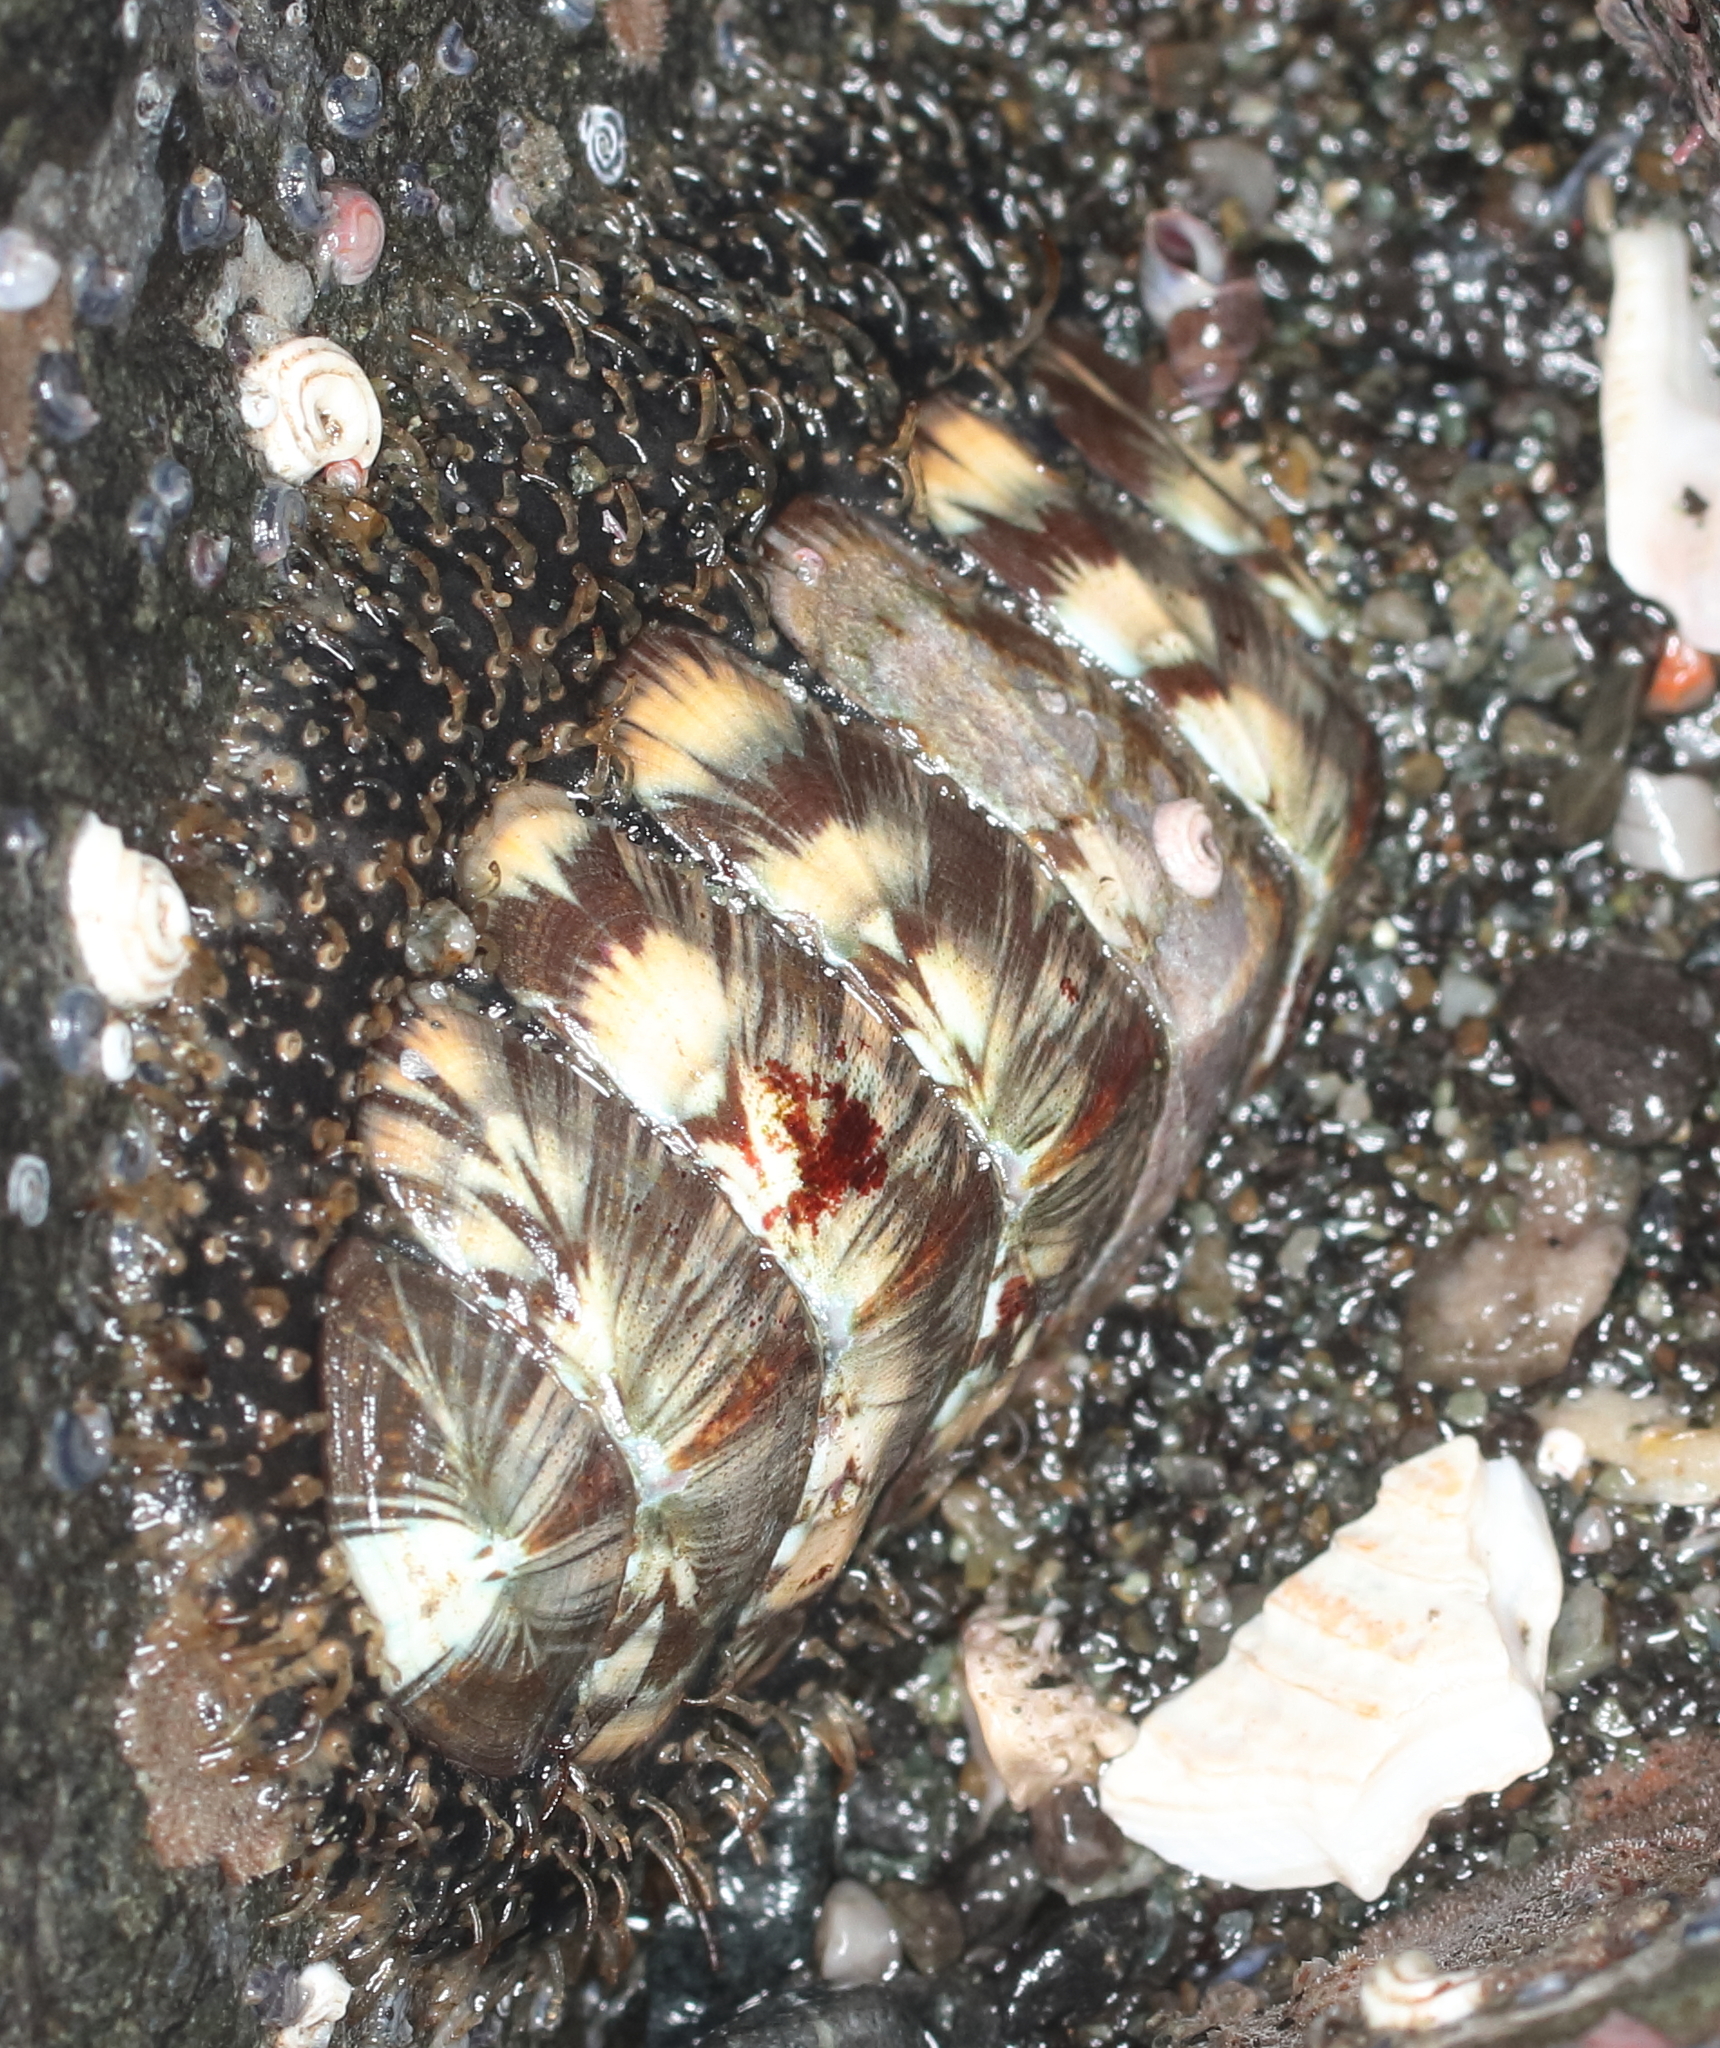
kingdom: Animalia
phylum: Mollusca
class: Polyplacophora
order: Chitonida
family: Mopaliidae
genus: Mopalia
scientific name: Mopalia lignosa
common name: Woody chiton
